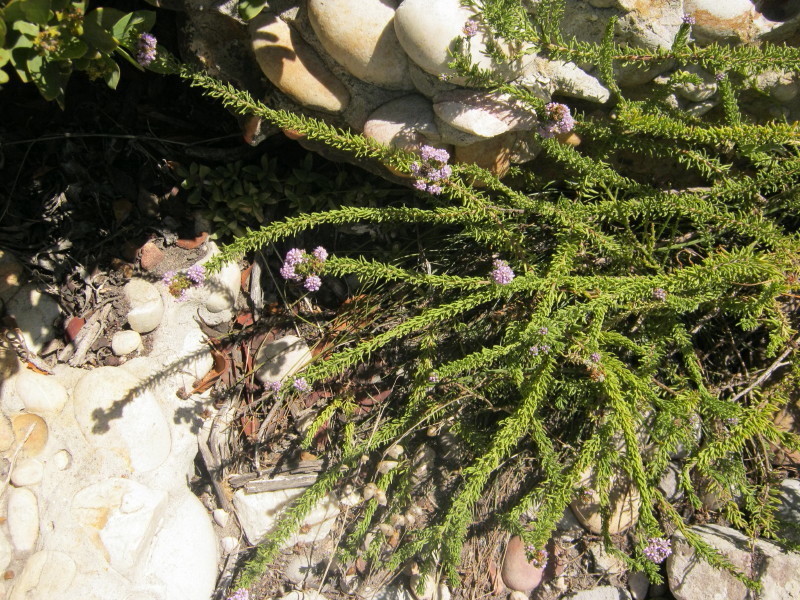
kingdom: Plantae
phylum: Tracheophyta
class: Magnoliopsida
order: Lamiales
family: Scrophulariaceae
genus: Selago
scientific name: Selago burchellii
